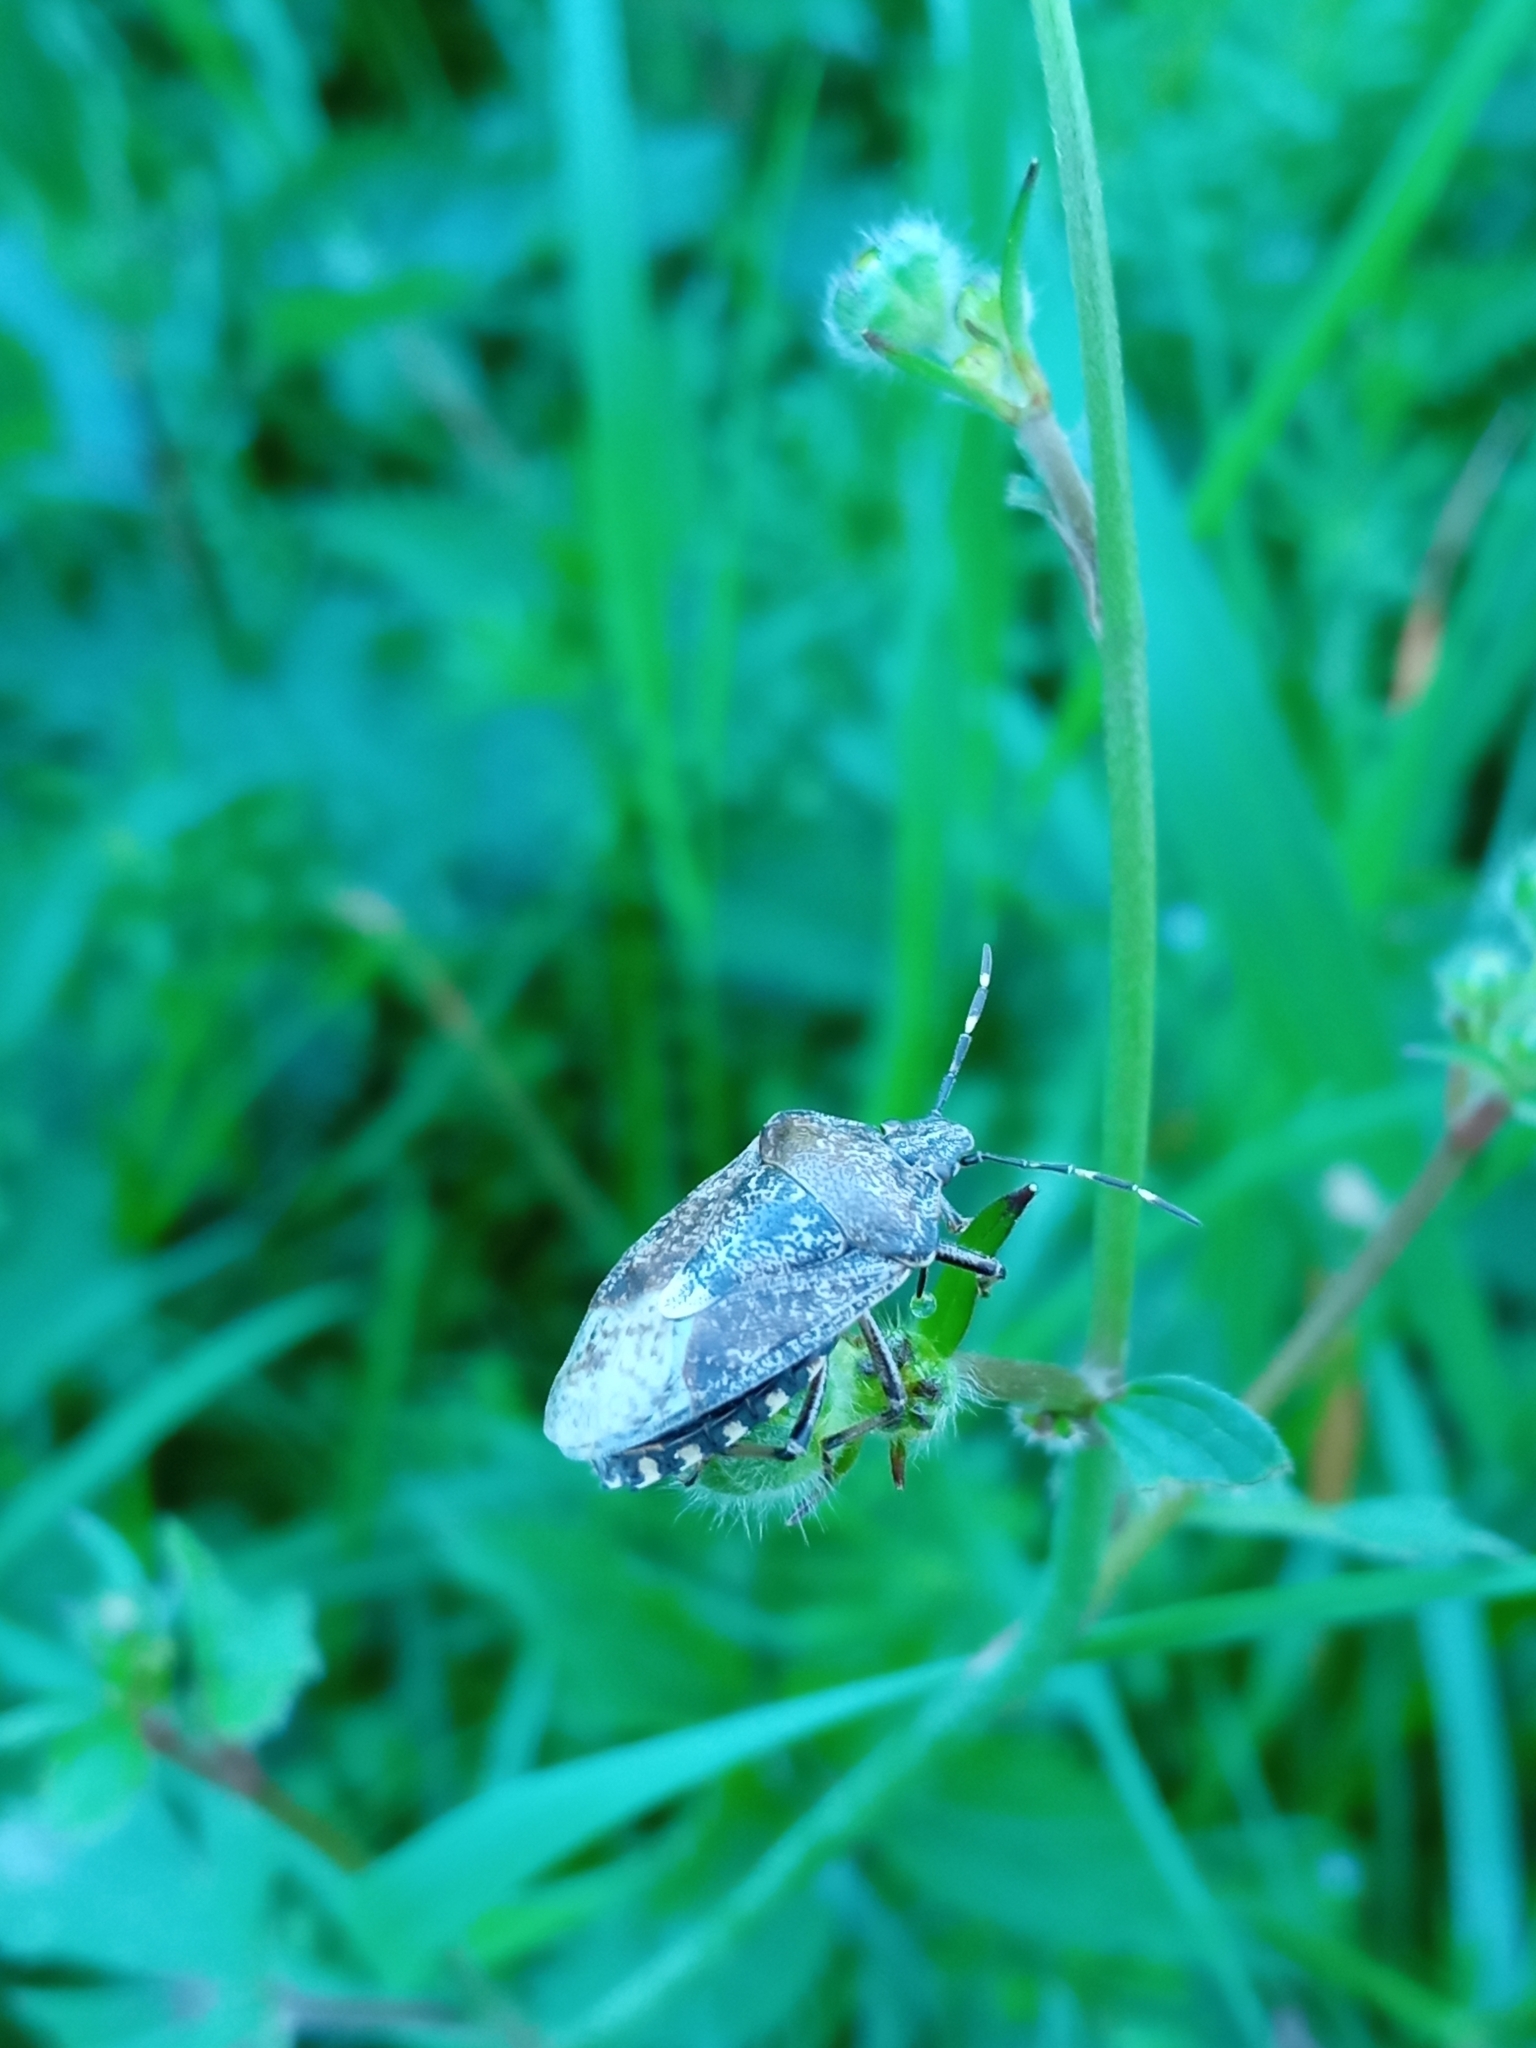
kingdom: Animalia
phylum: Arthropoda
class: Insecta
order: Hemiptera
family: Pentatomidae
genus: Rhaphigaster
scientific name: Rhaphigaster nebulosa
